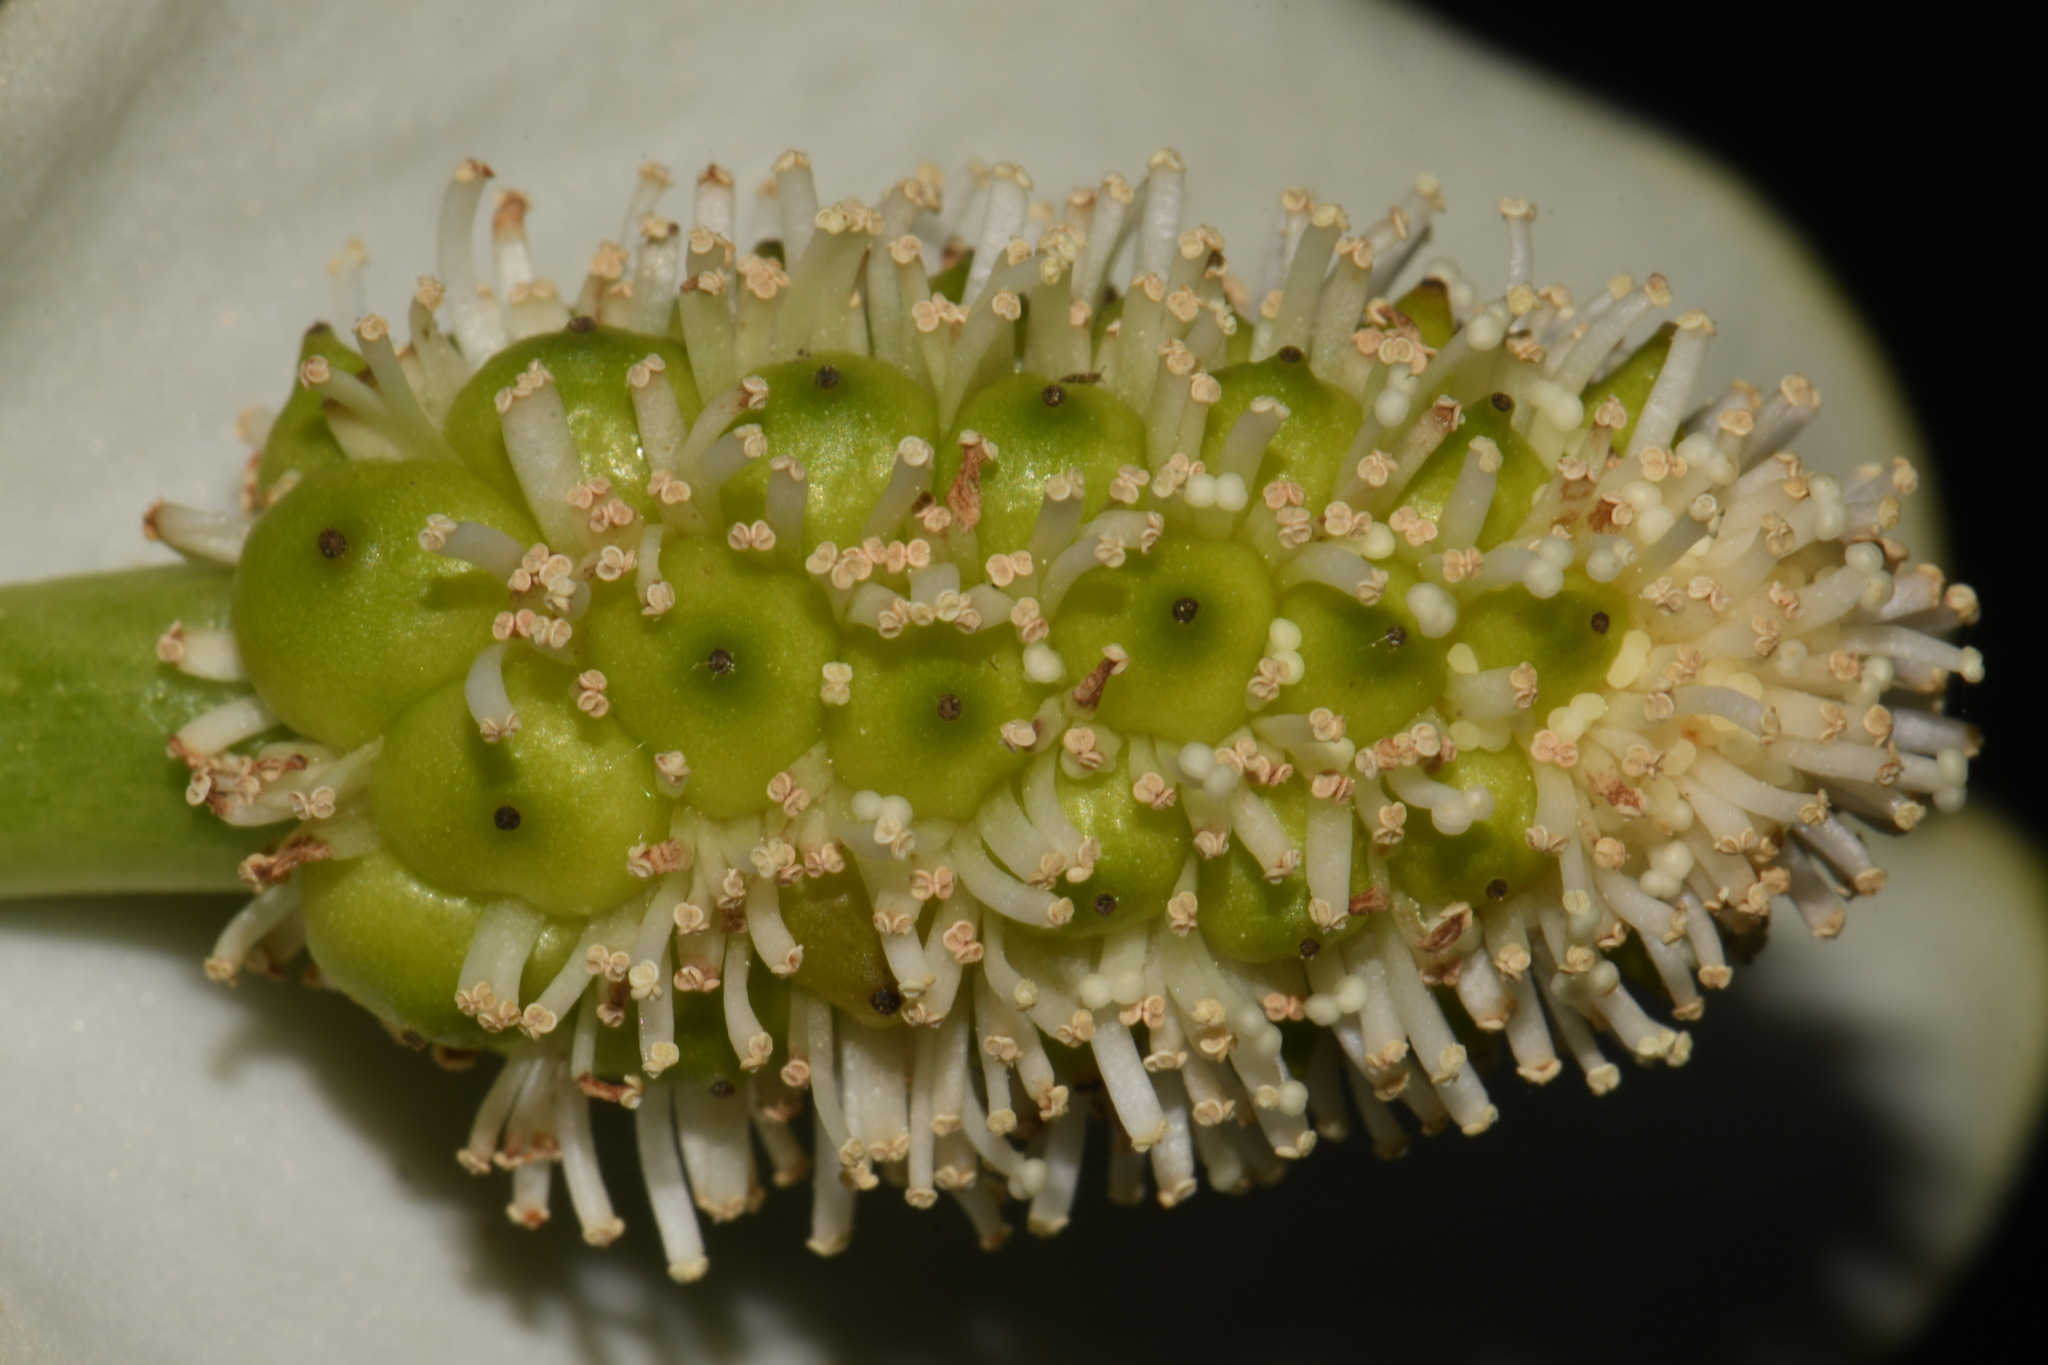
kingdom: Plantae
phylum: Tracheophyta
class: Liliopsida
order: Alismatales
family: Araceae
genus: Calla
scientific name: Calla palustris
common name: Bog arum
